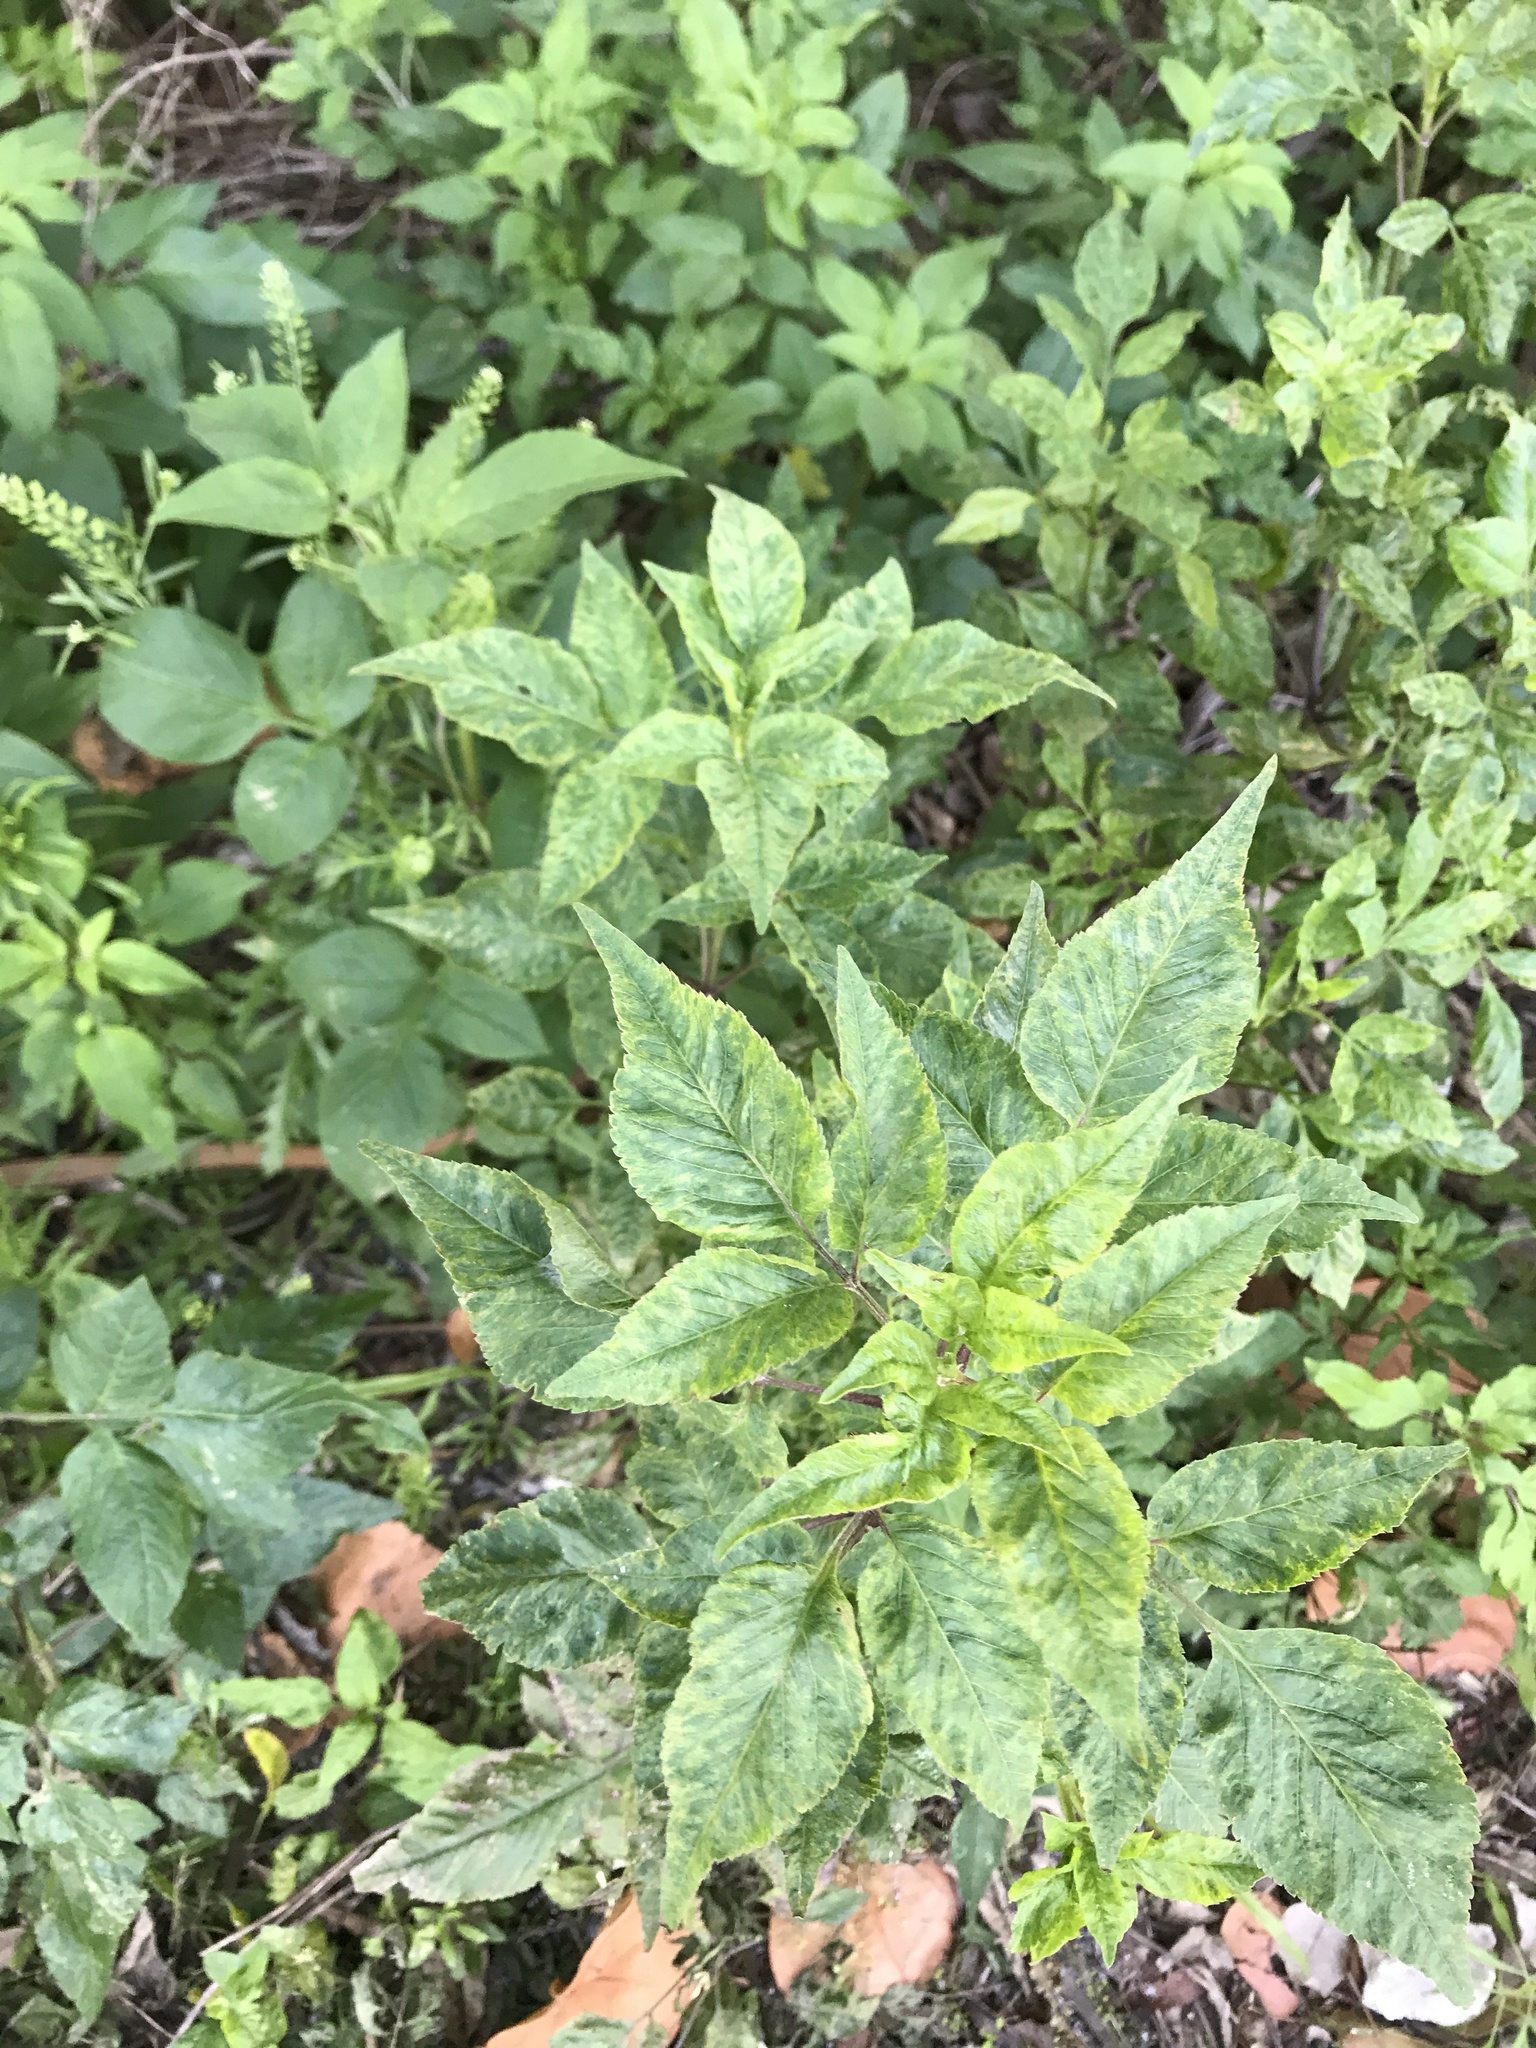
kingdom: Plantae
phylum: Tracheophyta
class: Magnoliopsida
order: Asterales
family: Asteraceae
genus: Bidens
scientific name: Bidens alba
